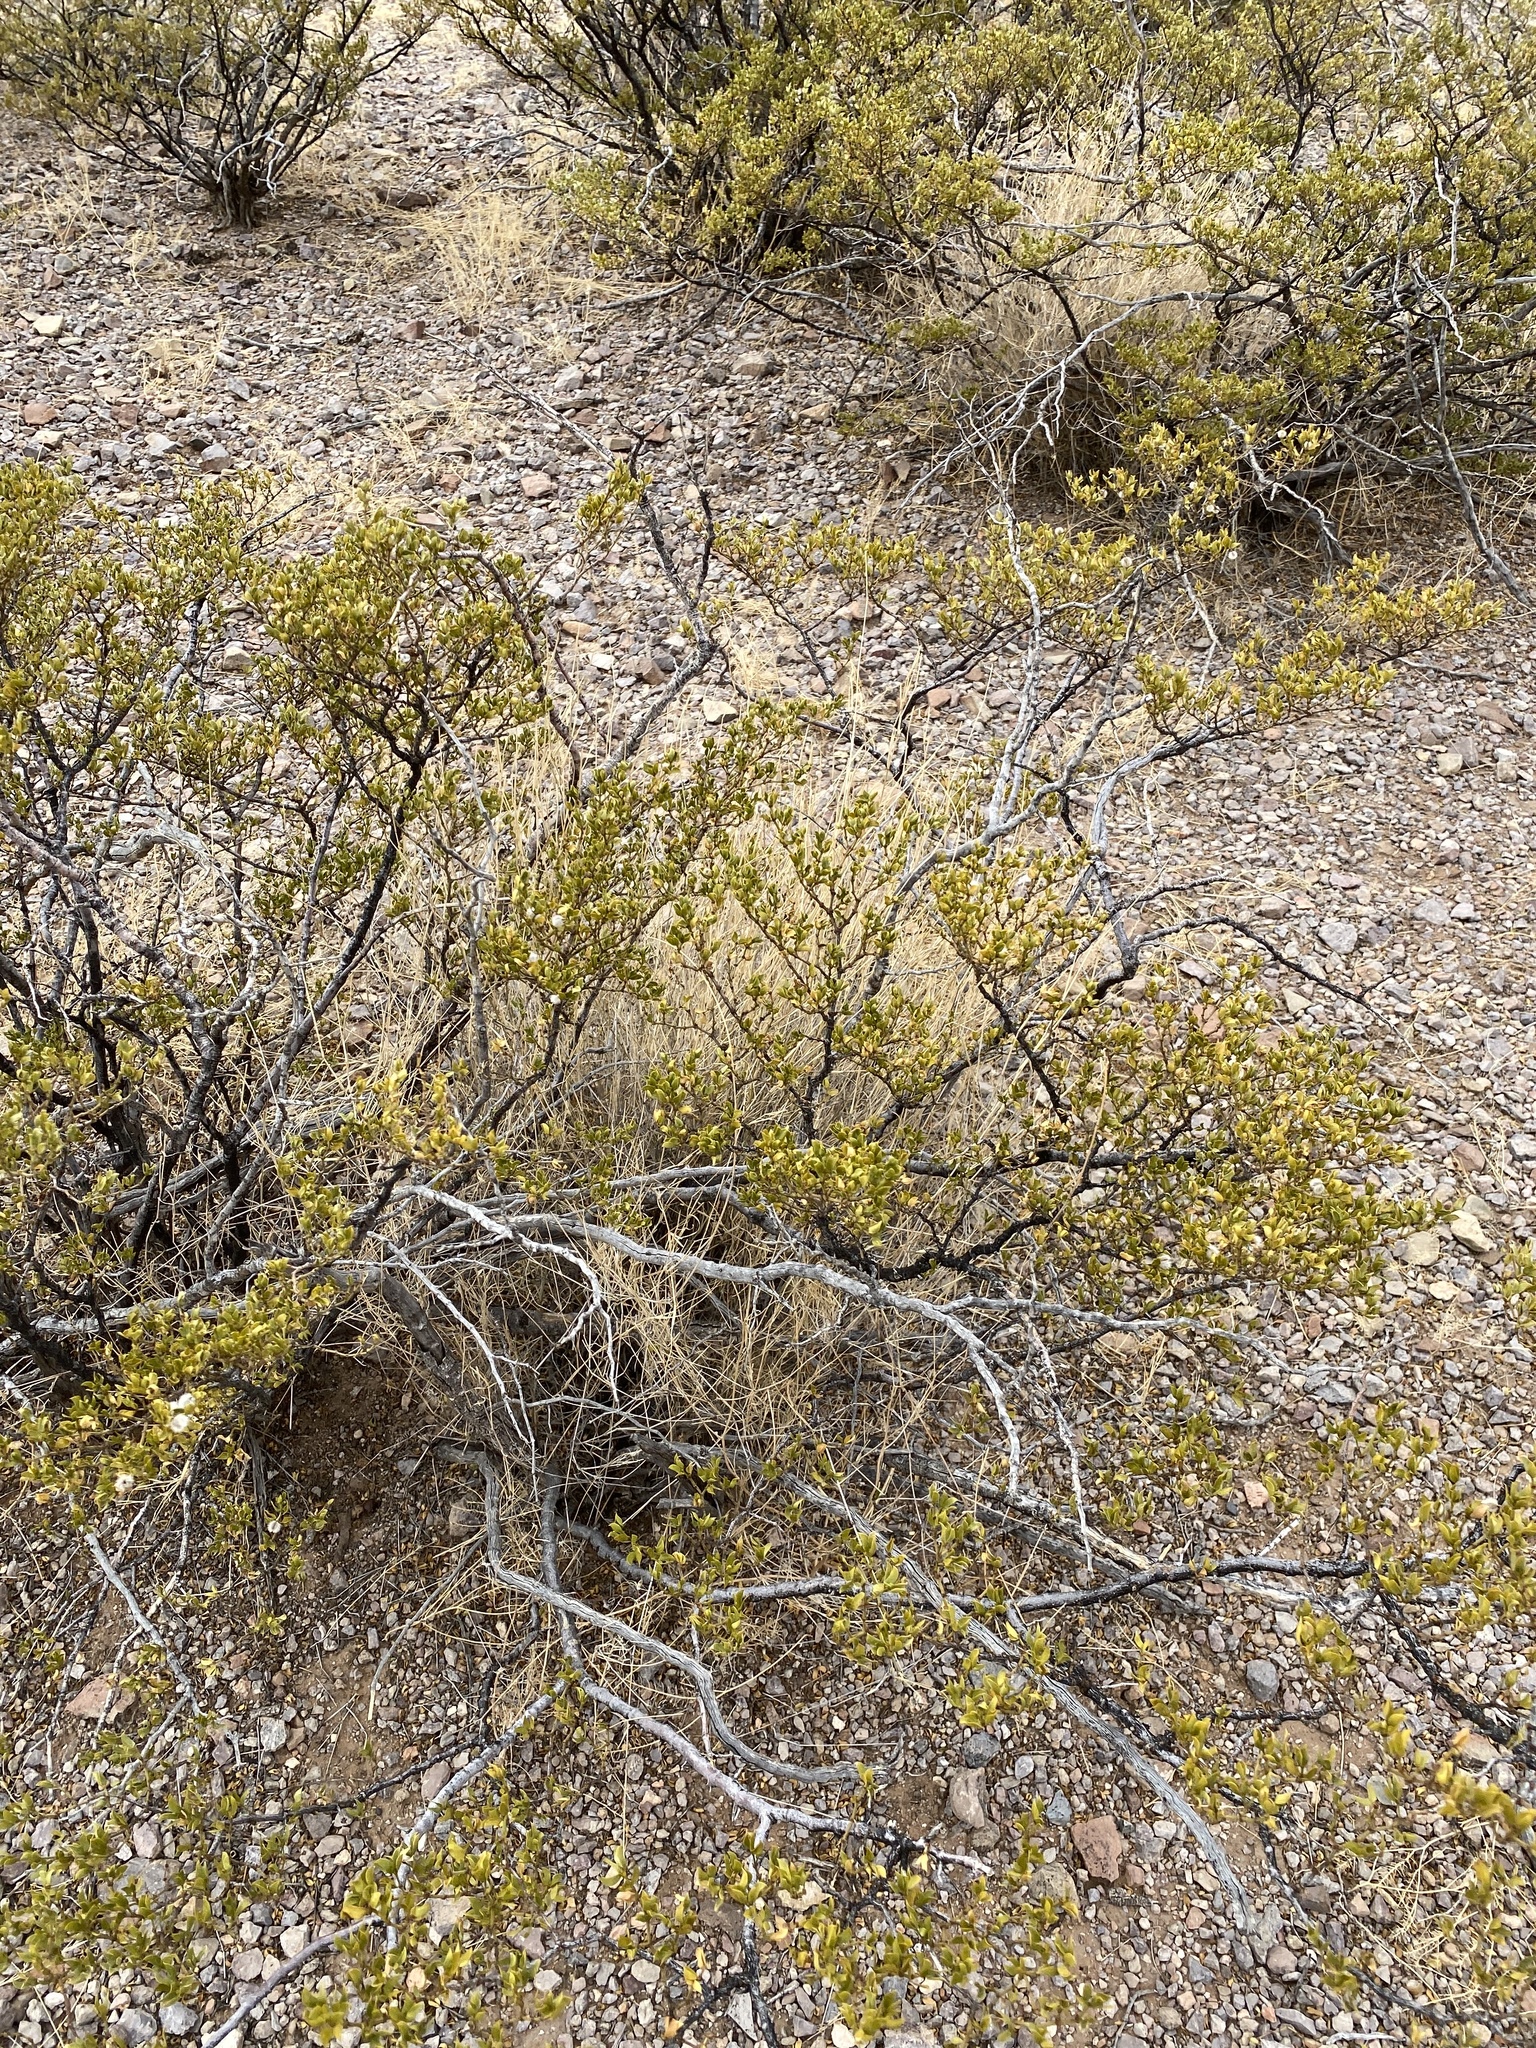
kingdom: Plantae
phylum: Tracheophyta
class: Magnoliopsida
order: Zygophyllales
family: Zygophyllaceae
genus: Larrea
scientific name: Larrea tridentata
